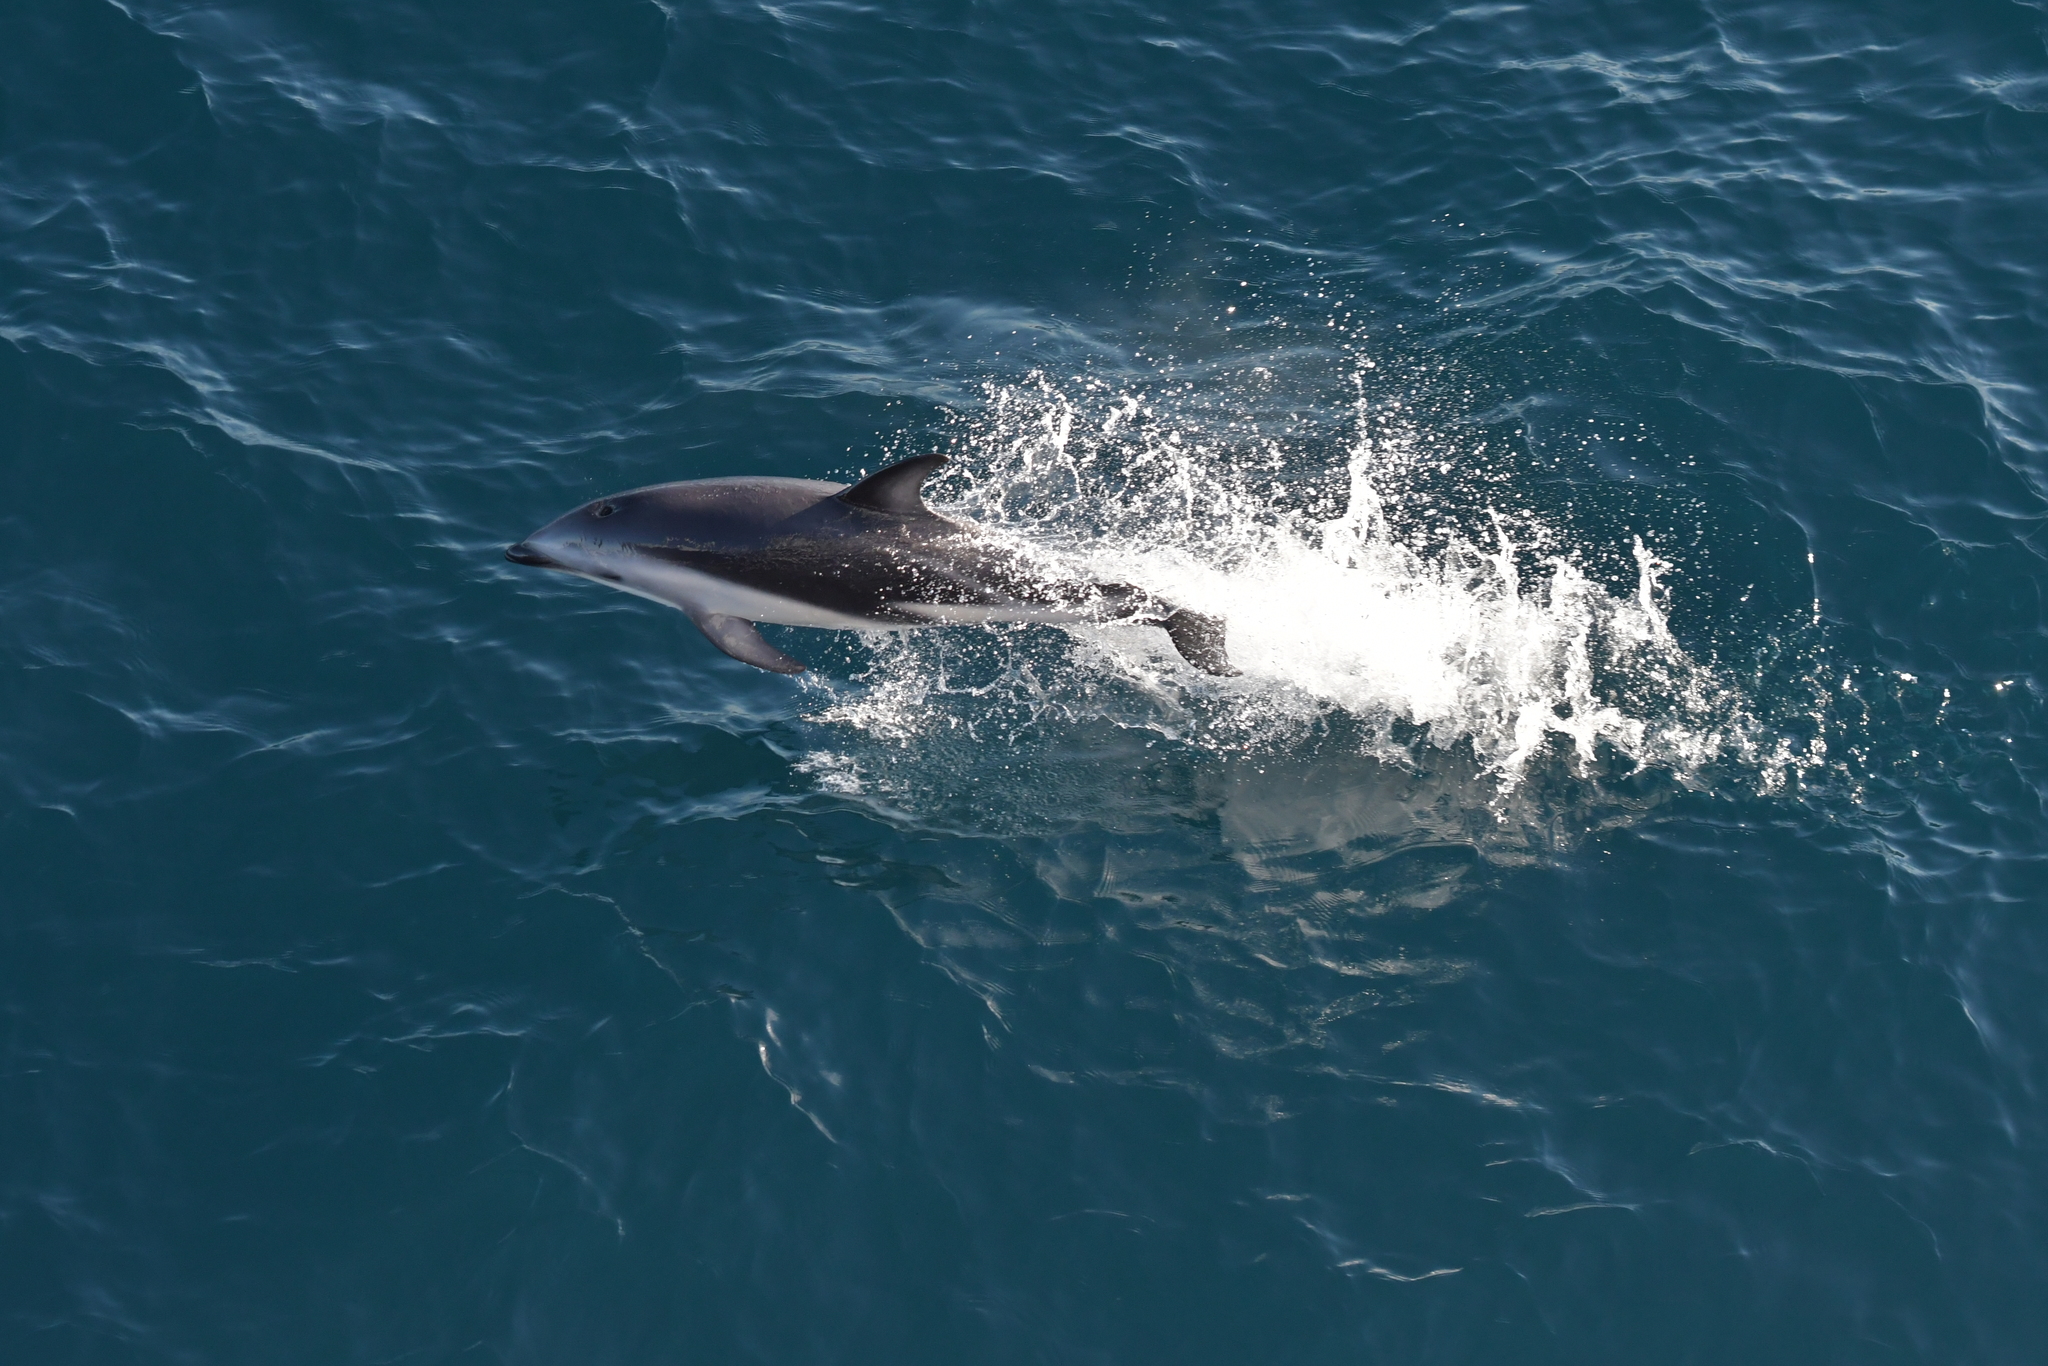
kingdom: Animalia
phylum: Chordata
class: Mammalia
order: Cetacea
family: Delphinidae
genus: Lagenorhynchus
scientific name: Lagenorhynchus obscurus
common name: Dusky dolphin
